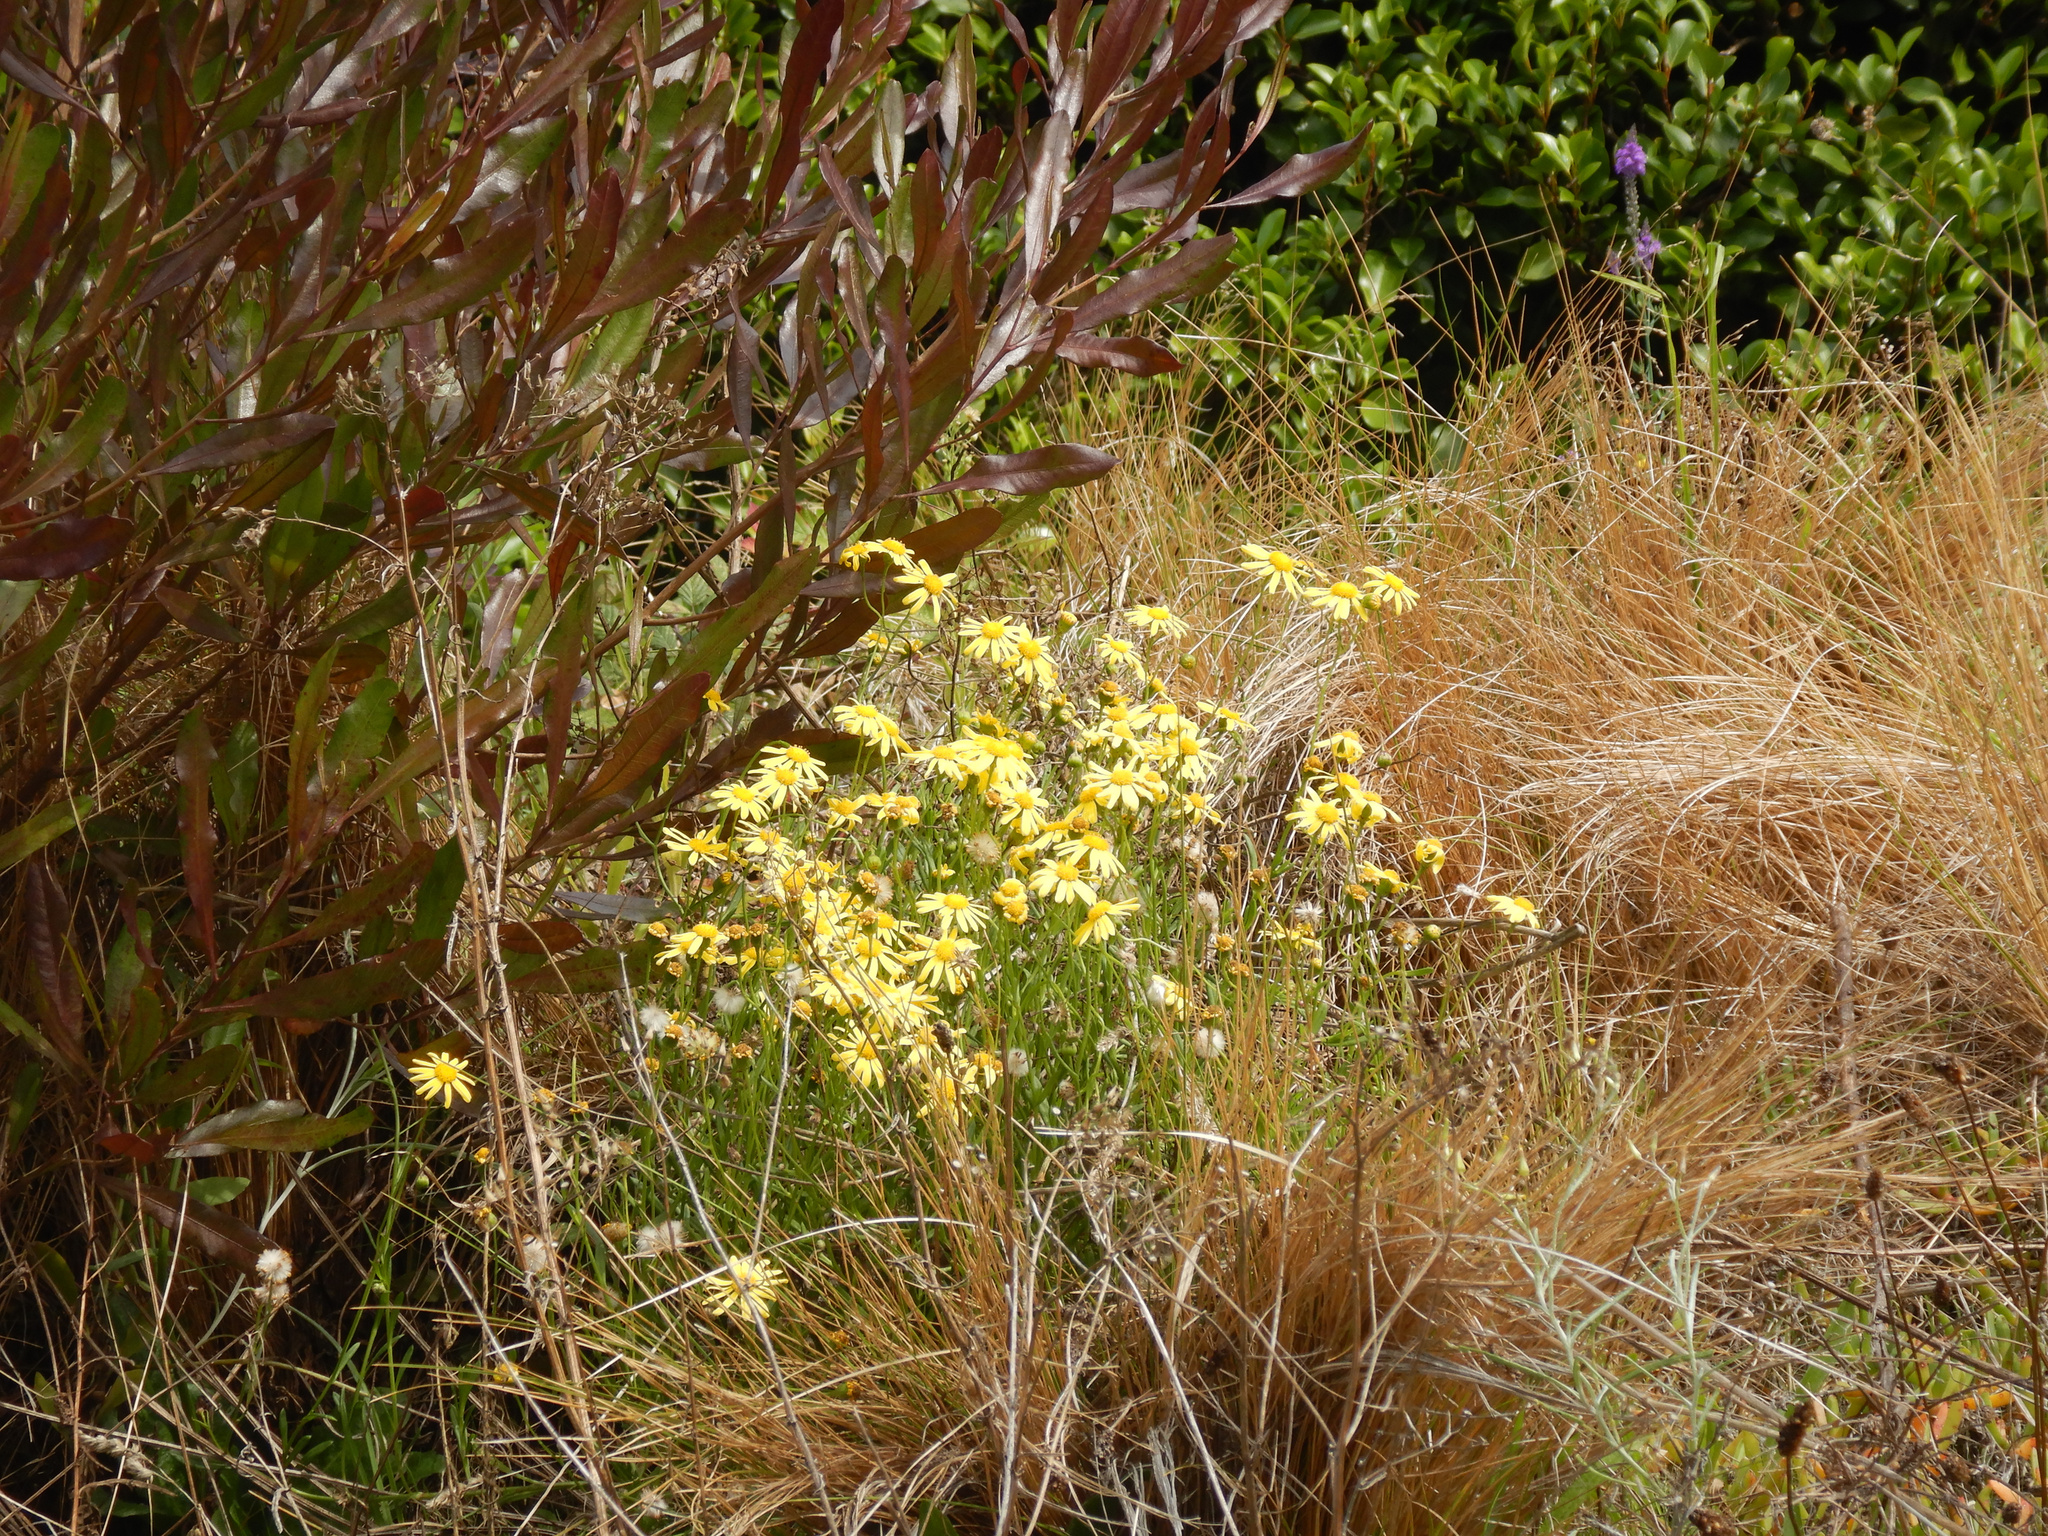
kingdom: Plantae
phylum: Tracheophyta
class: Magnoliopsida
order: Asterales
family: Asteraceae
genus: Senecio
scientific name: Senecio skirrhodon
